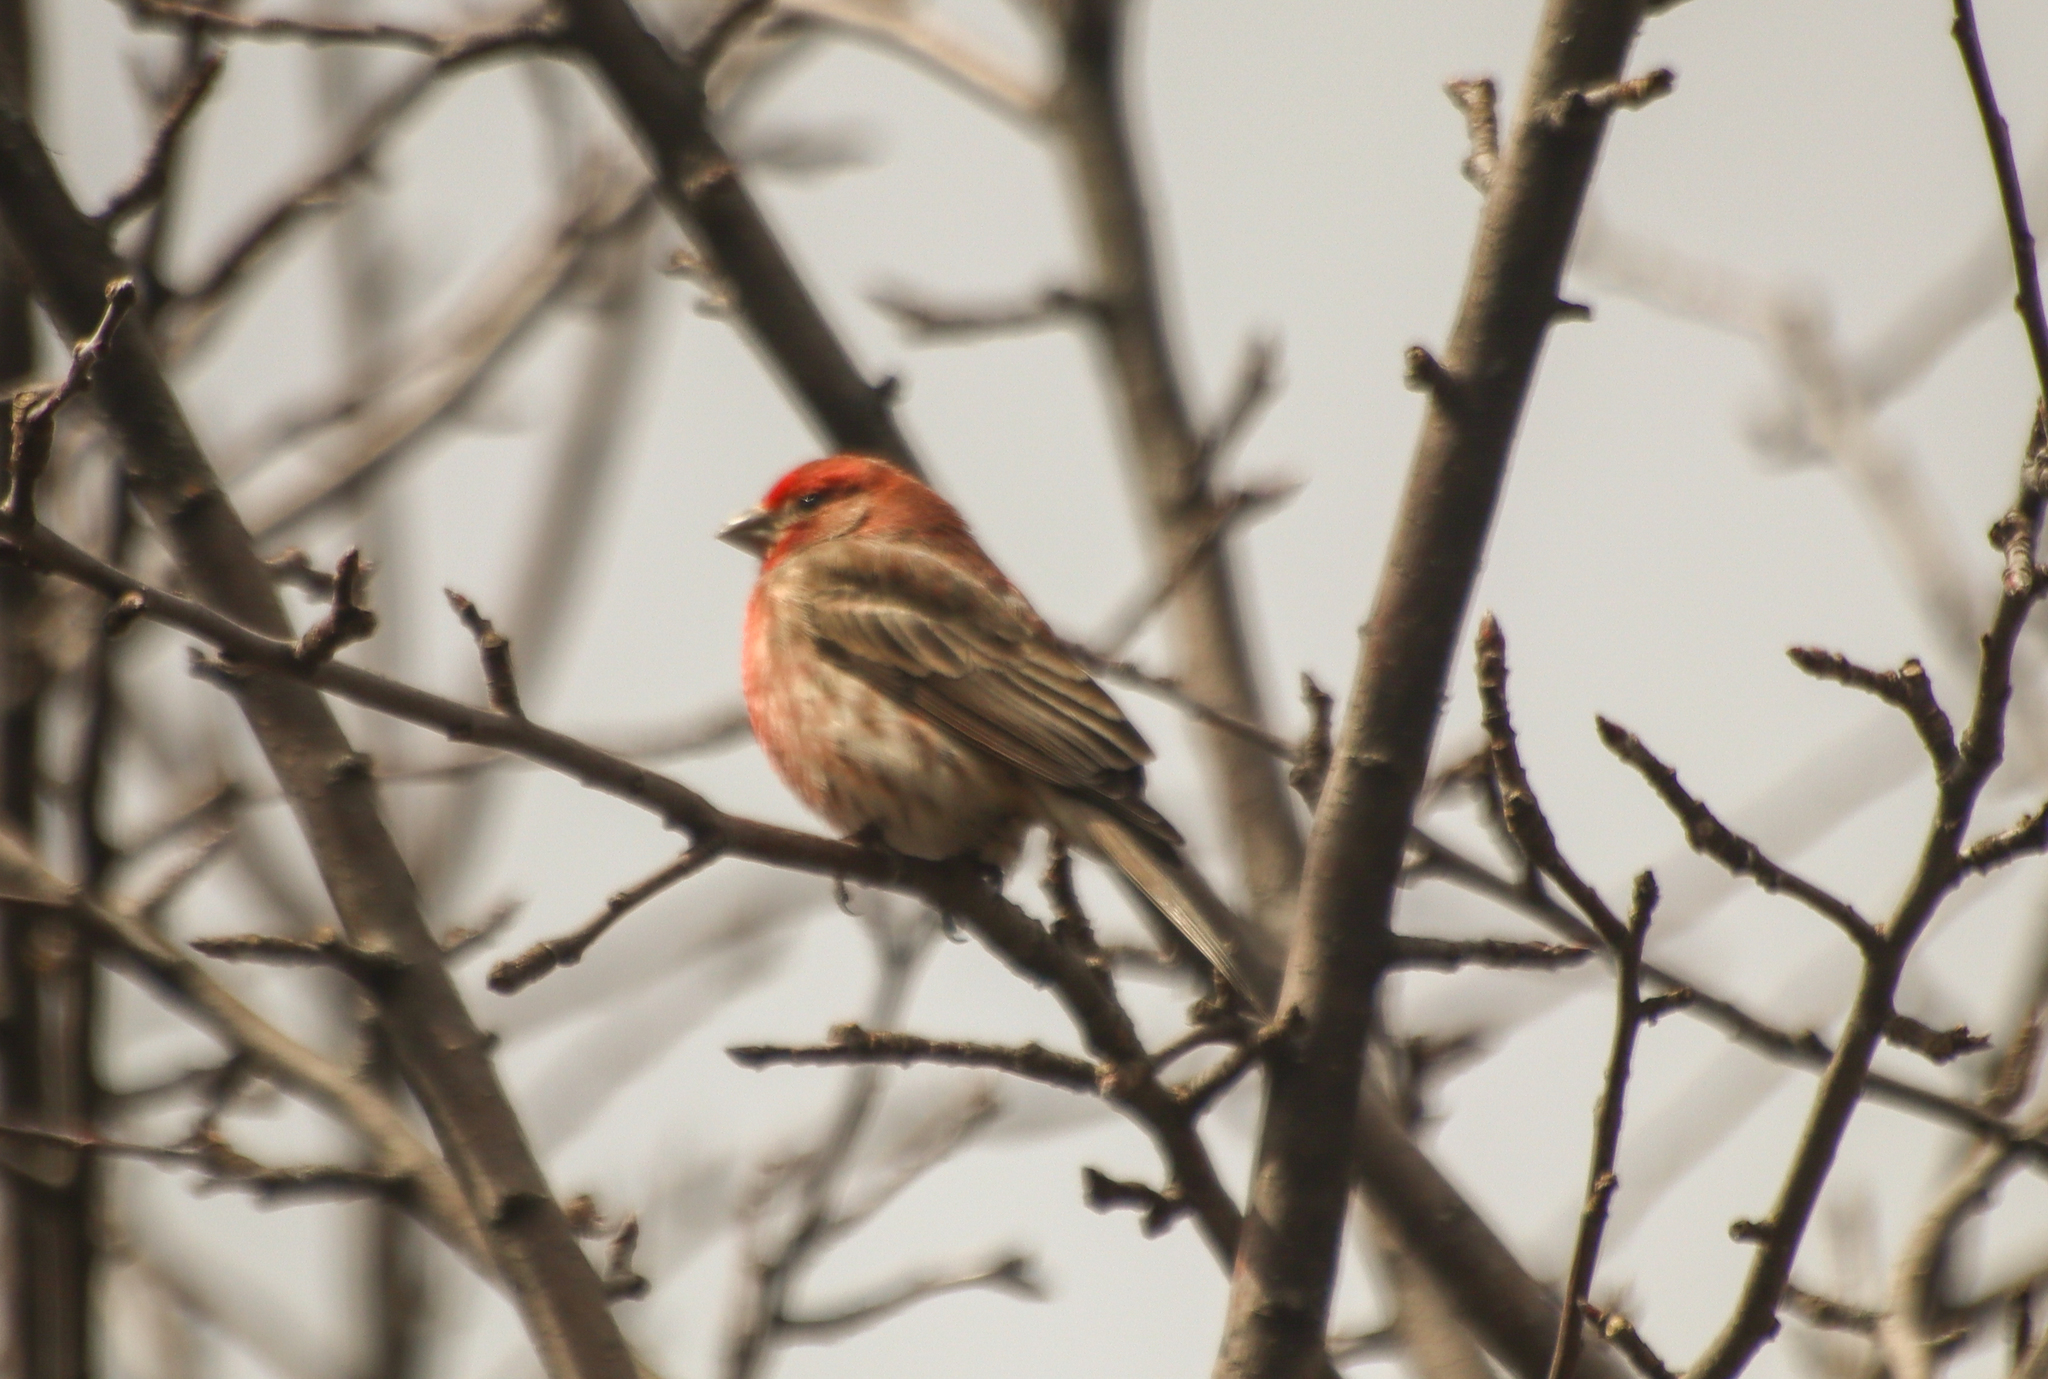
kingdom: Animalia
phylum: Chordata
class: Aves
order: Passeriformes
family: Fringillidae
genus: Haemorhous
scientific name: Haemorhous mexicanus
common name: House finch
